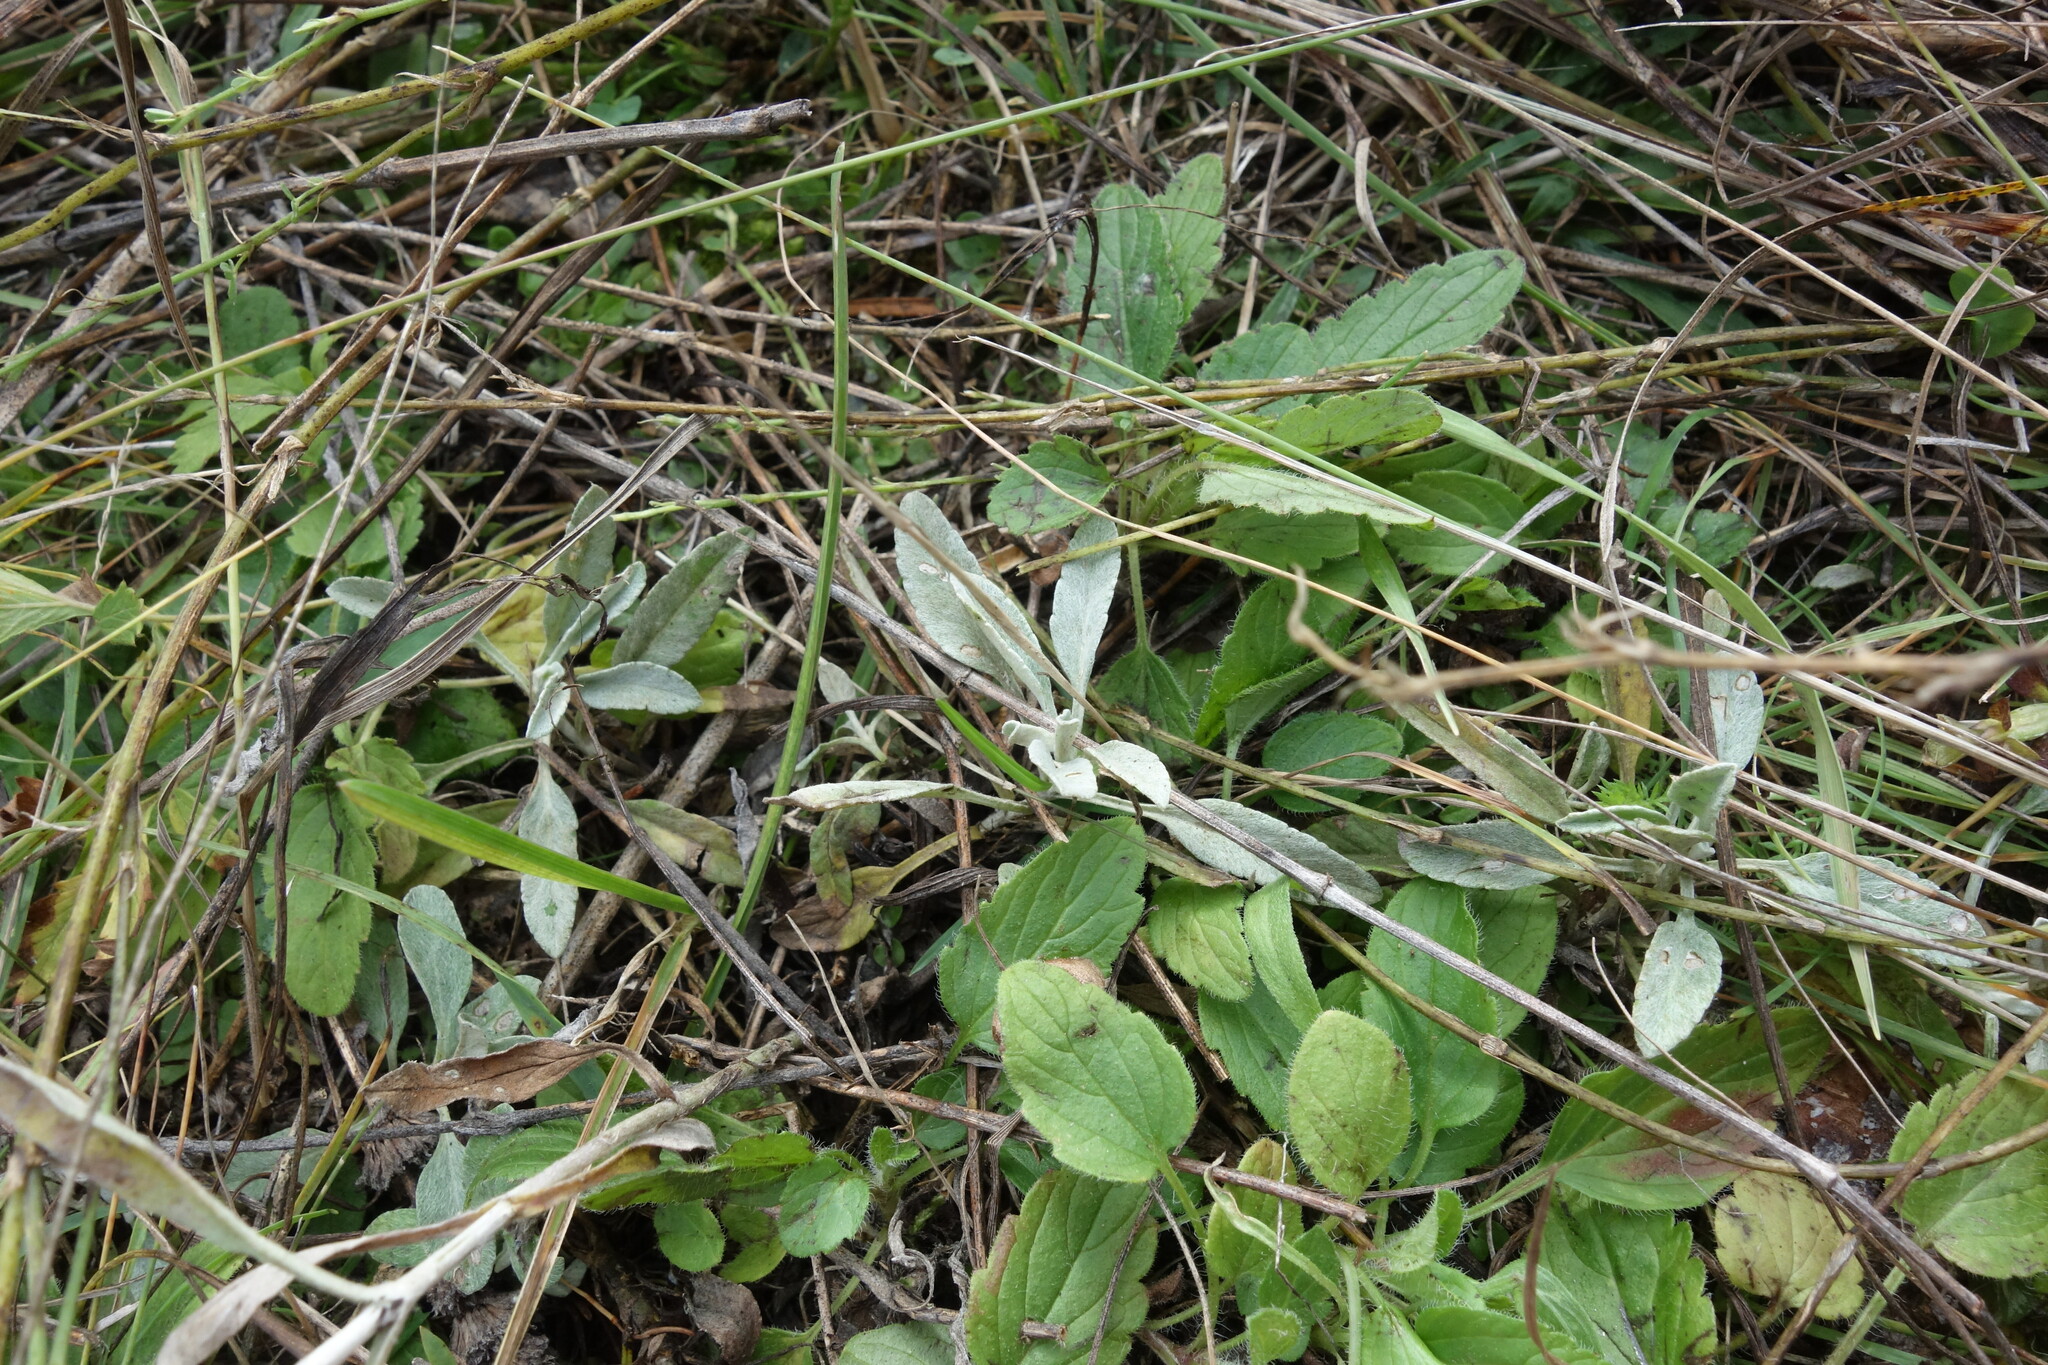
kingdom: Plantae
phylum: Tracheophyta
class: Magnoliopsida
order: Lamiales
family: Plantaginaceae
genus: Veronica
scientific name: Veronica incana
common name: Silver speedwell
